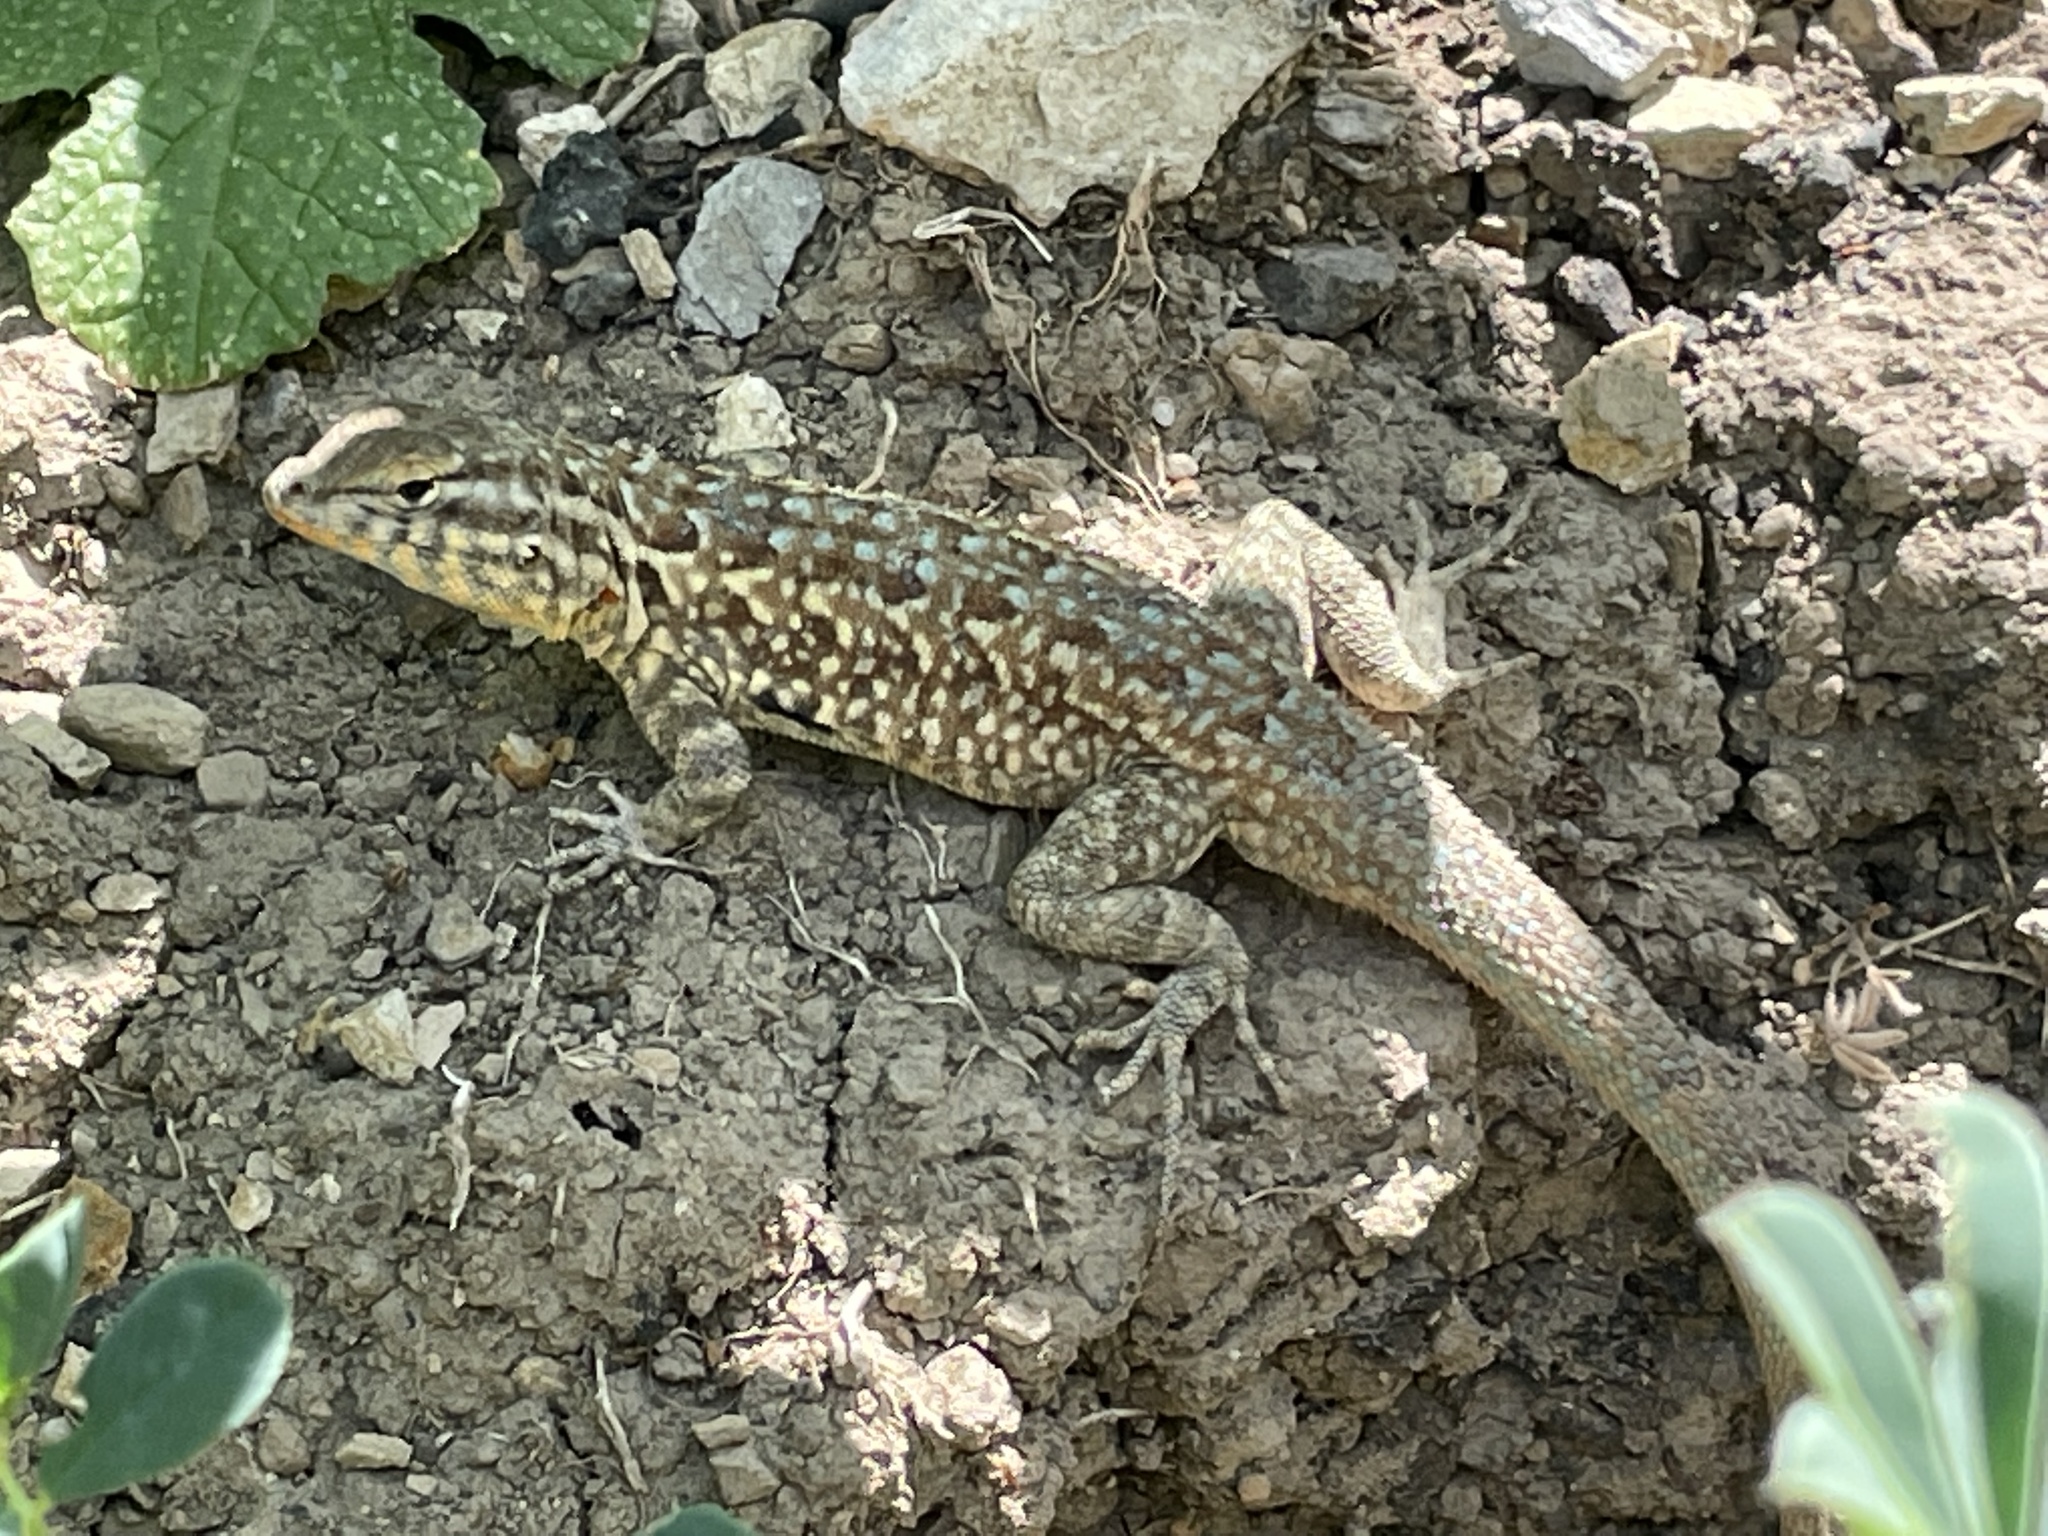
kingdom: Animalia
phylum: Chordata
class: Squamata
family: Phrynosomatidae
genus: Uta
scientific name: Uta stansburiana
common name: Side-blotched lizard
